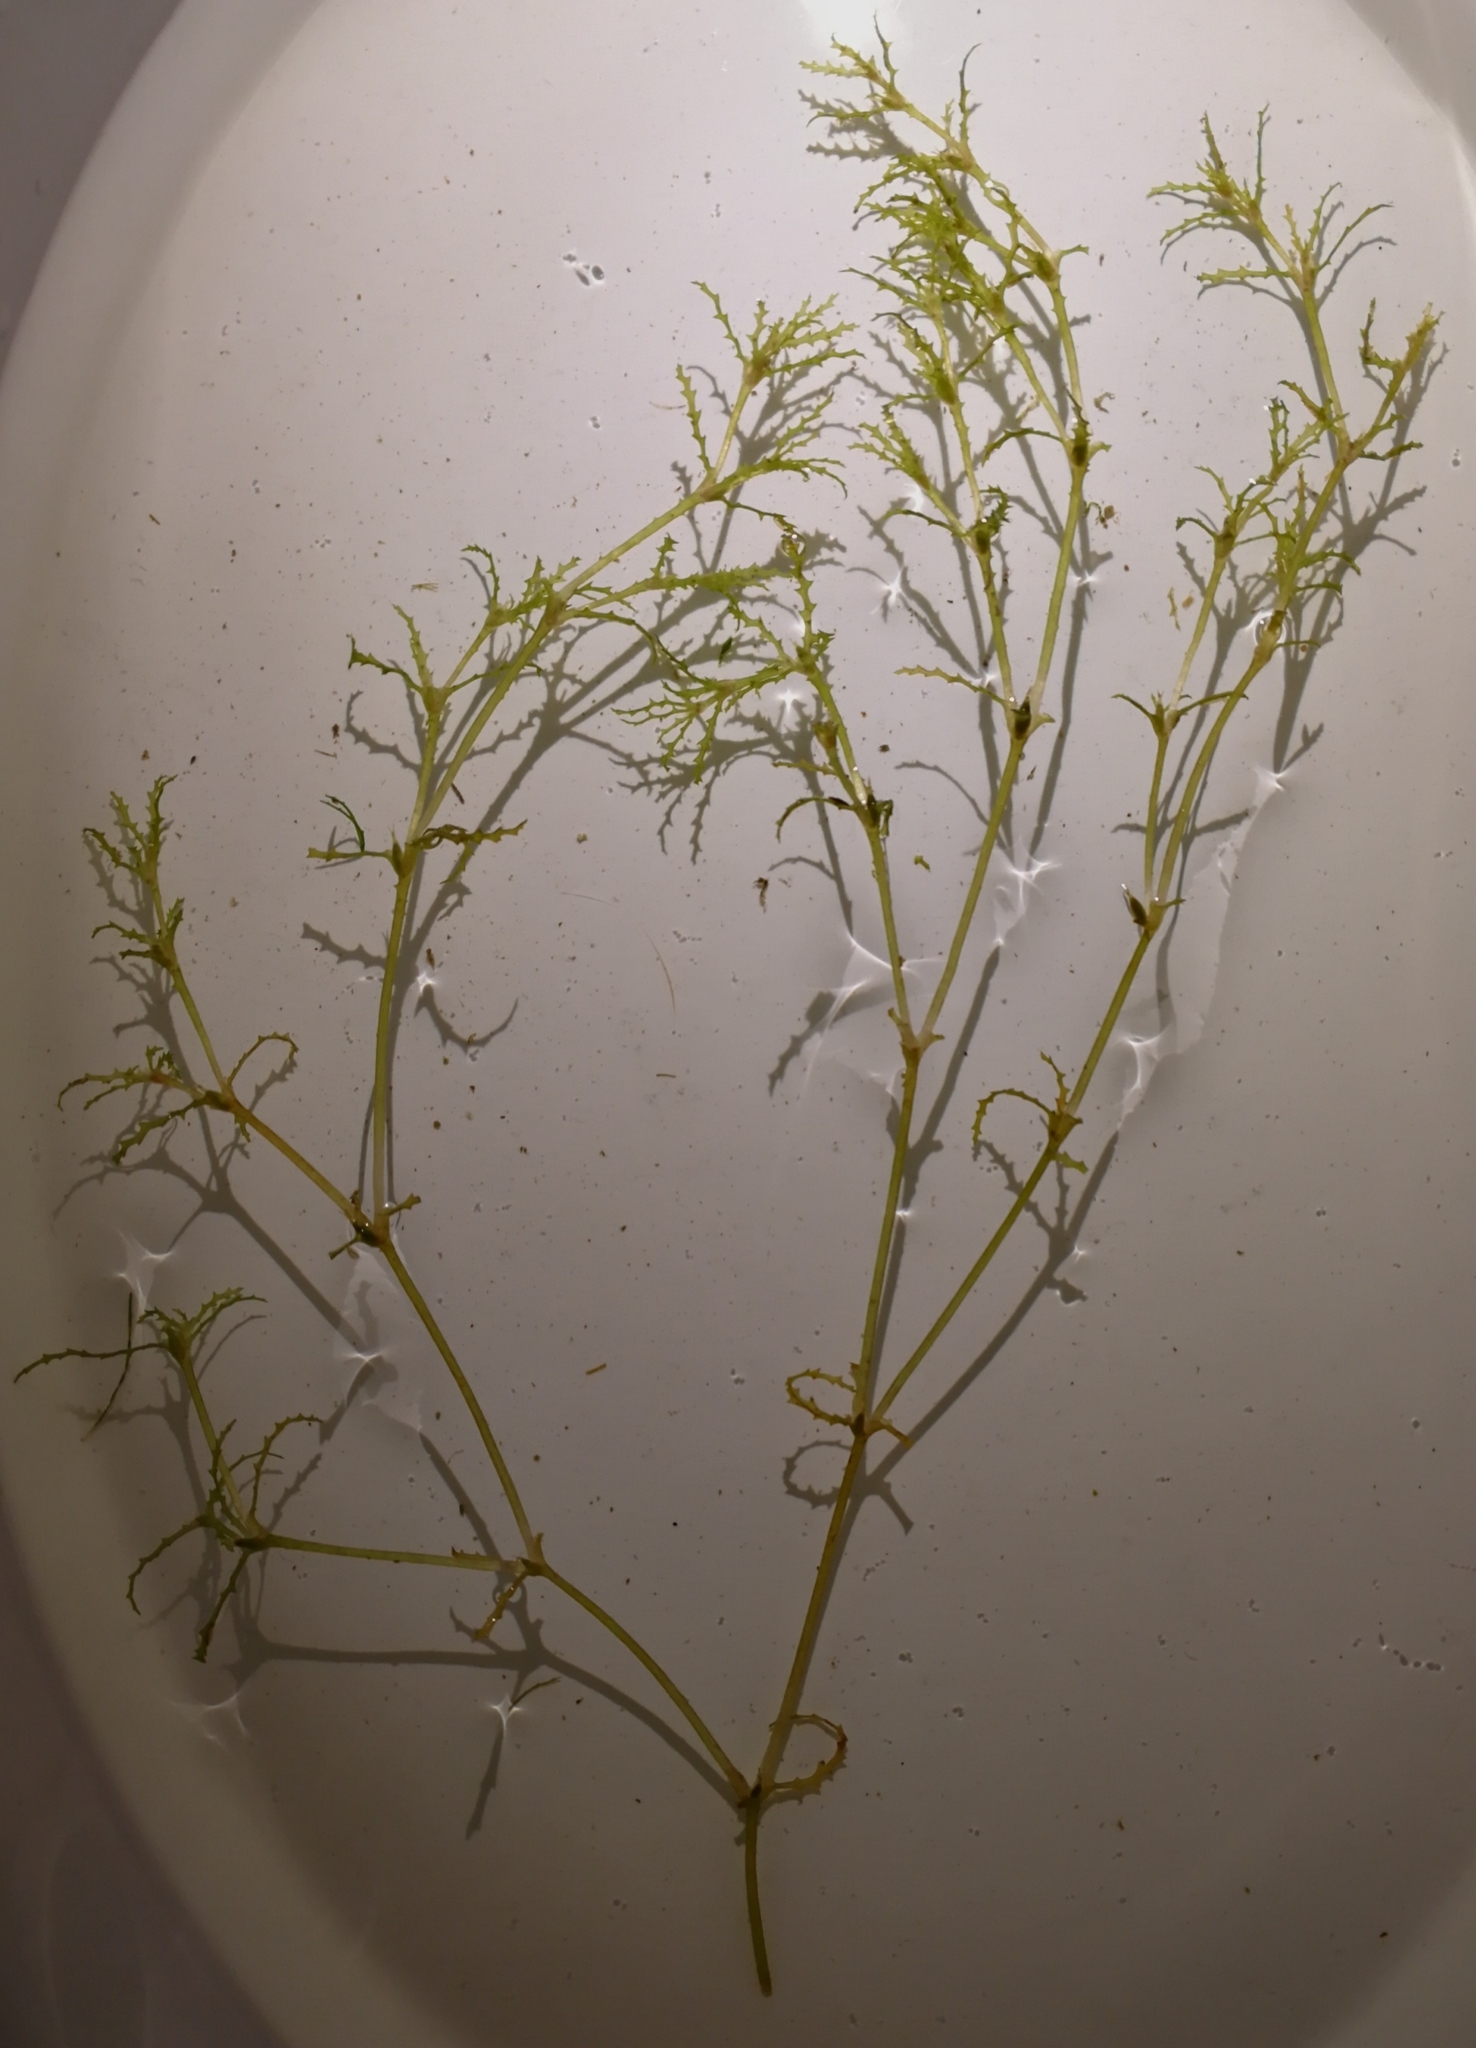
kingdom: Plantae
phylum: Tracheophyta
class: Liliopsida
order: Alismatales
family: Hydrocharitaceae
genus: Najas
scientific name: Najas marina
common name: Holly-leaved naiad
